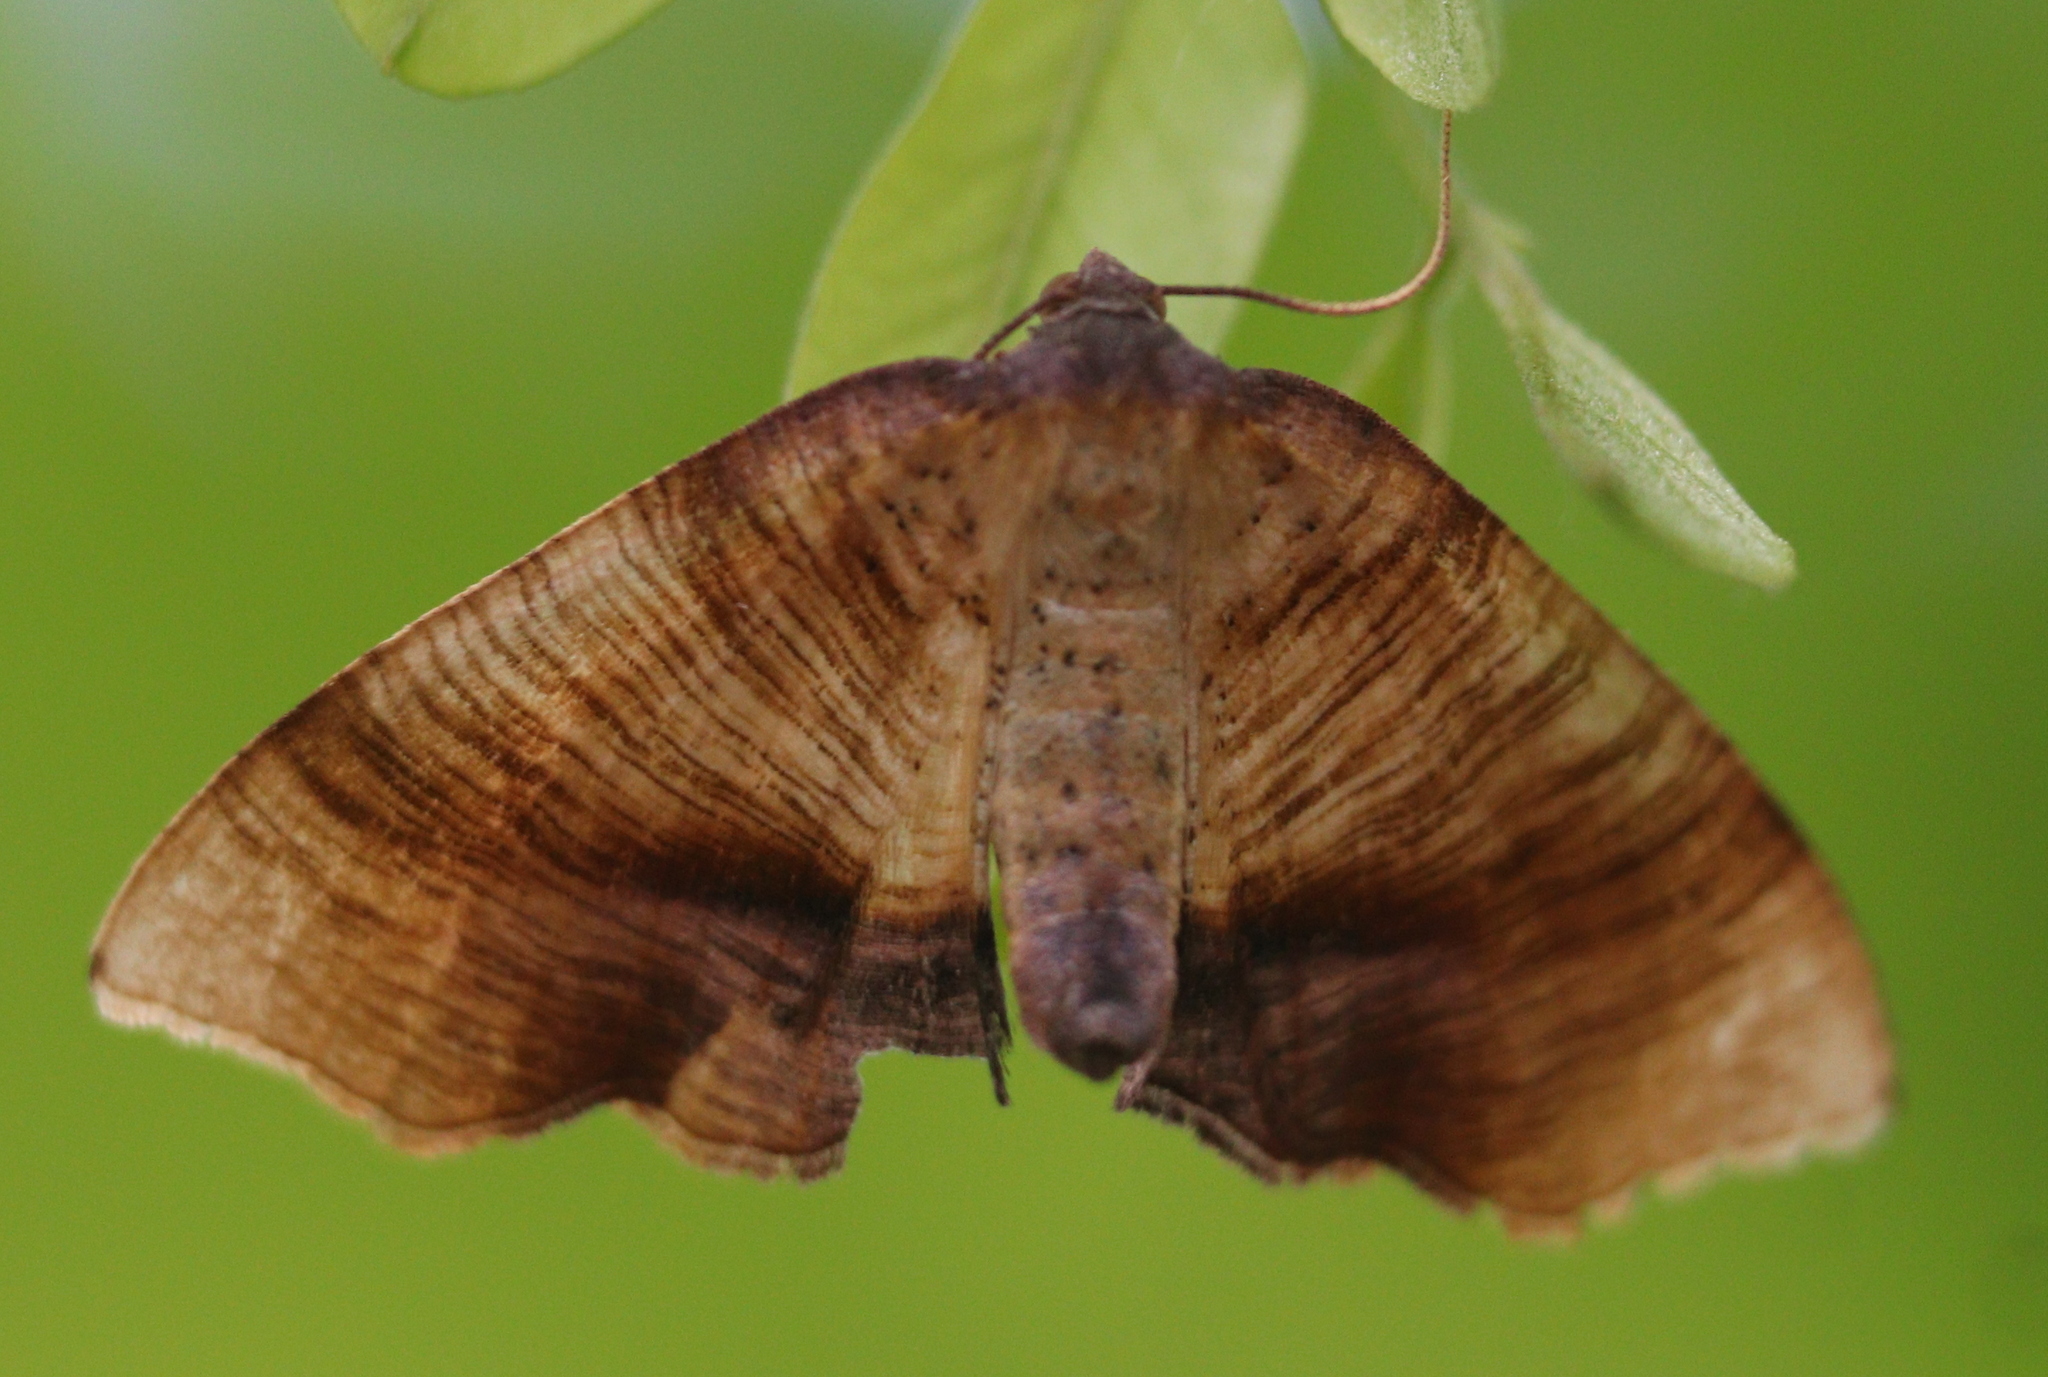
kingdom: Animalia
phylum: Arthropoda
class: Insecta
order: Lepidoptera
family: Geometridae
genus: Plagodis
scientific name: Plagodis dolabraria
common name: Scorched wing
